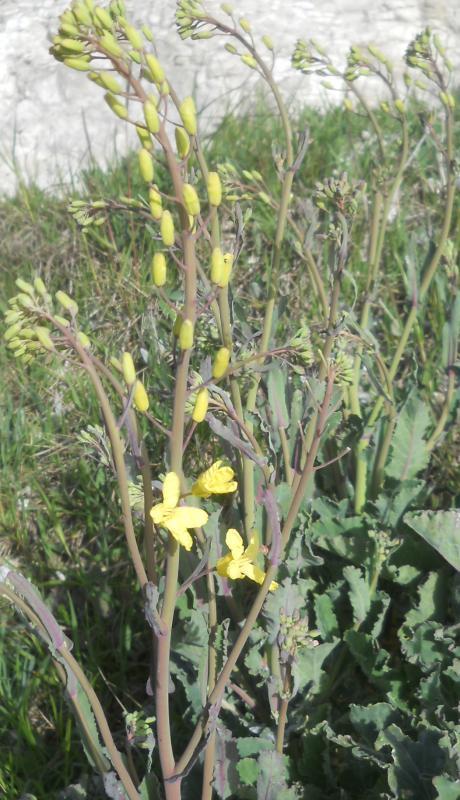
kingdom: Plantae
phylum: Tracheophyta
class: Magnoliopsida
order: Brassicales
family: Brassicaceae
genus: Brassica
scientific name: Brassica napus
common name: Rape
